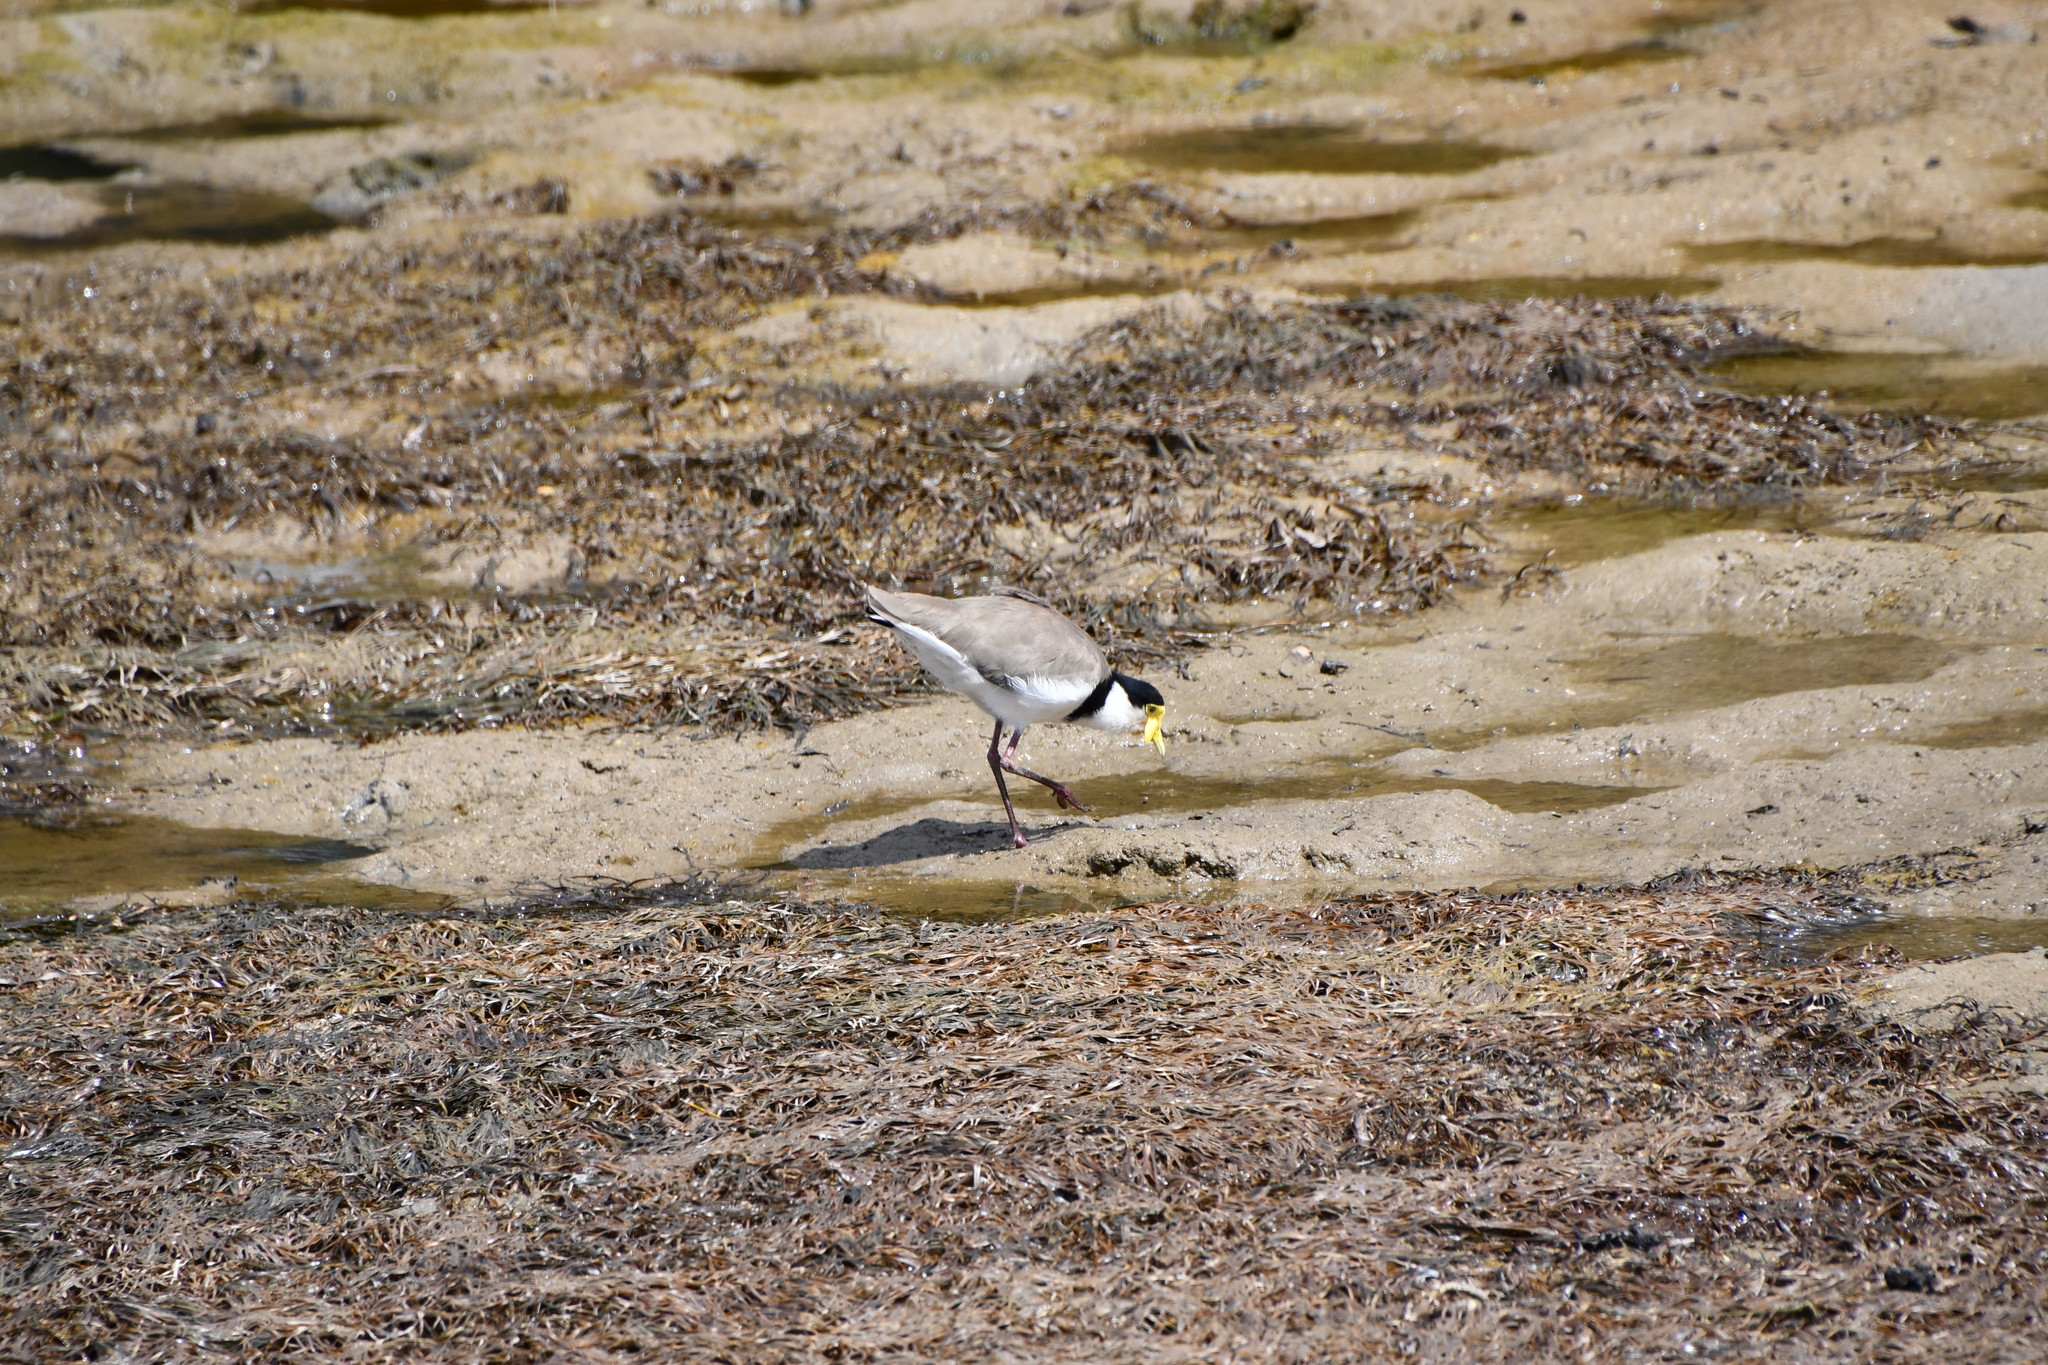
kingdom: Animalia
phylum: Chordata
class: Aves
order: Charadriiformes
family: Charadriidae
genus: Vanellus
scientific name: Vanellus miles
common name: Masked lapwing
